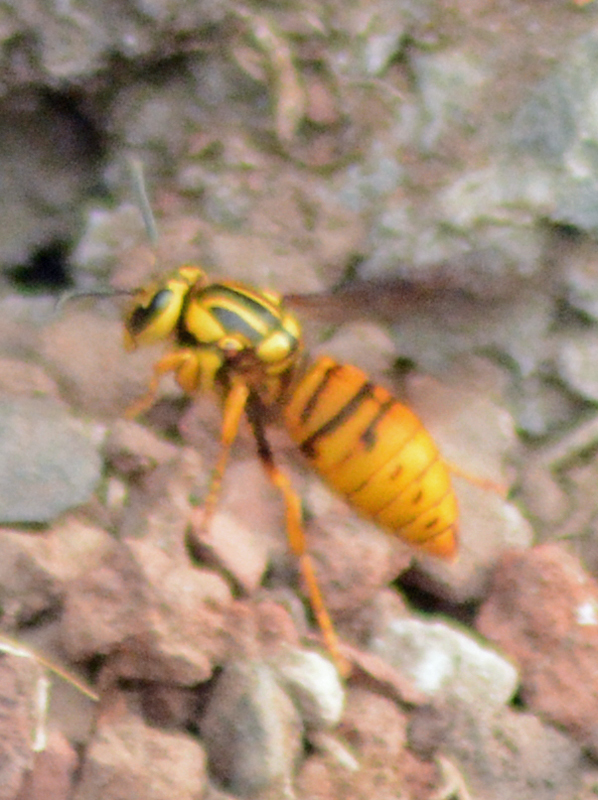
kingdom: Animalia
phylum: Arthropoda
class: Insecta
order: Hymenoptera
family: Vespidae
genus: Vespula
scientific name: Vespula squamosa
